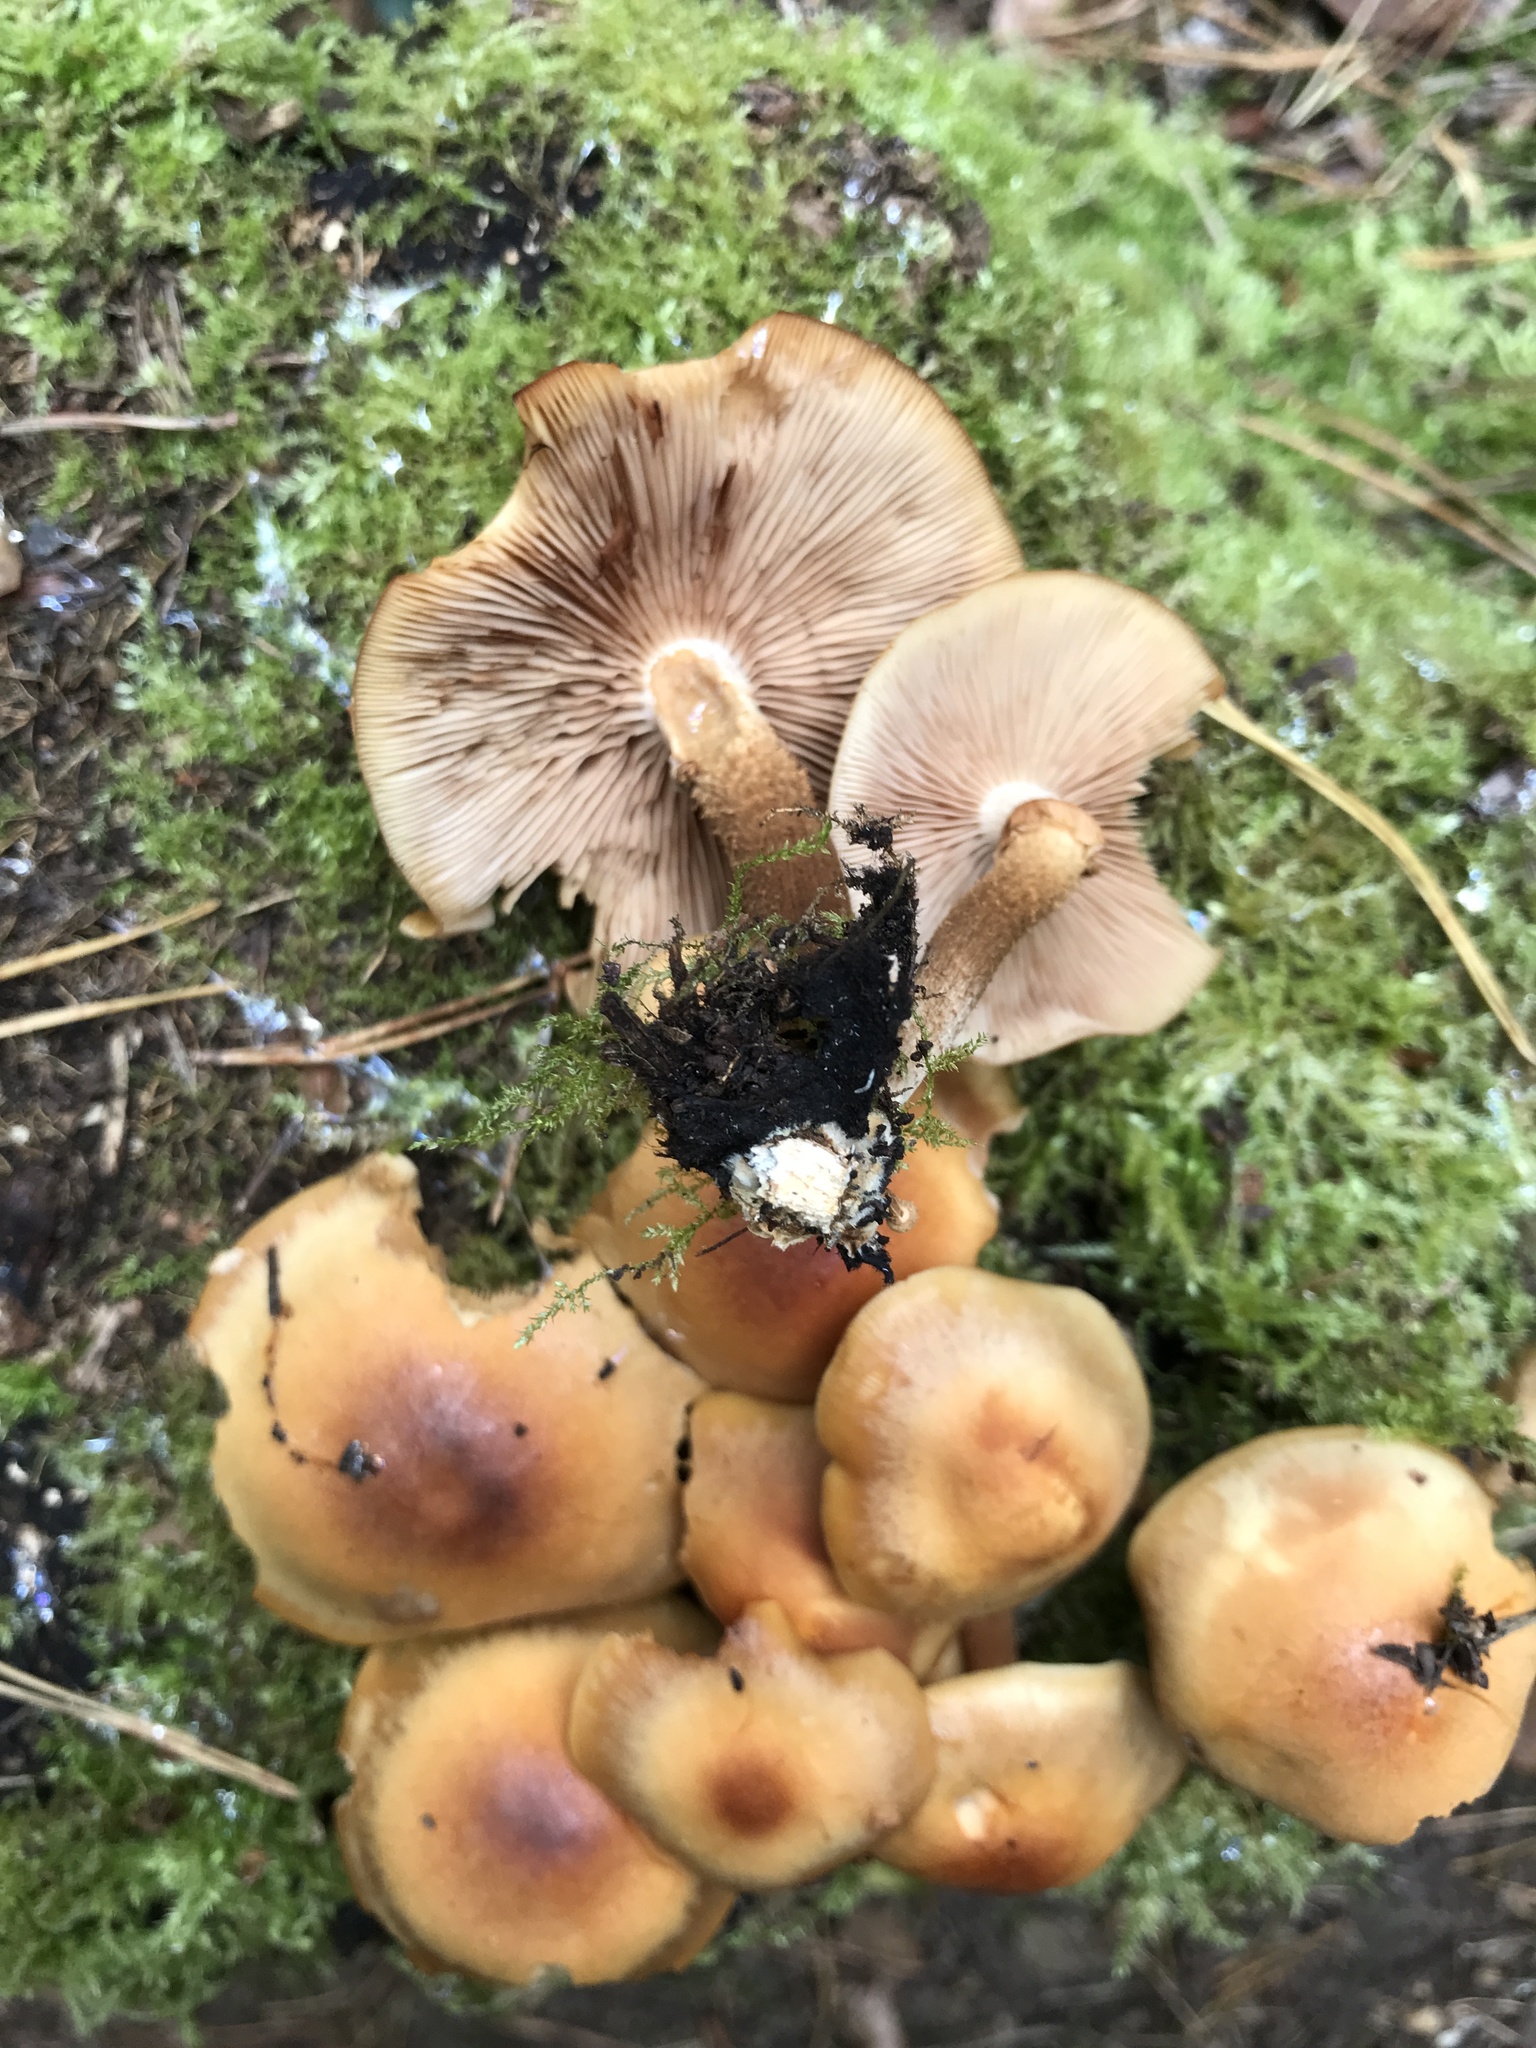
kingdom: Fungi
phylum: Basidiomycota
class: Agaricomycetes
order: Agaricales
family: Strophariaceae
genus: Kuehneromyces
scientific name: Kuehneromyces mutabilis
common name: Sheathed woodtuft
